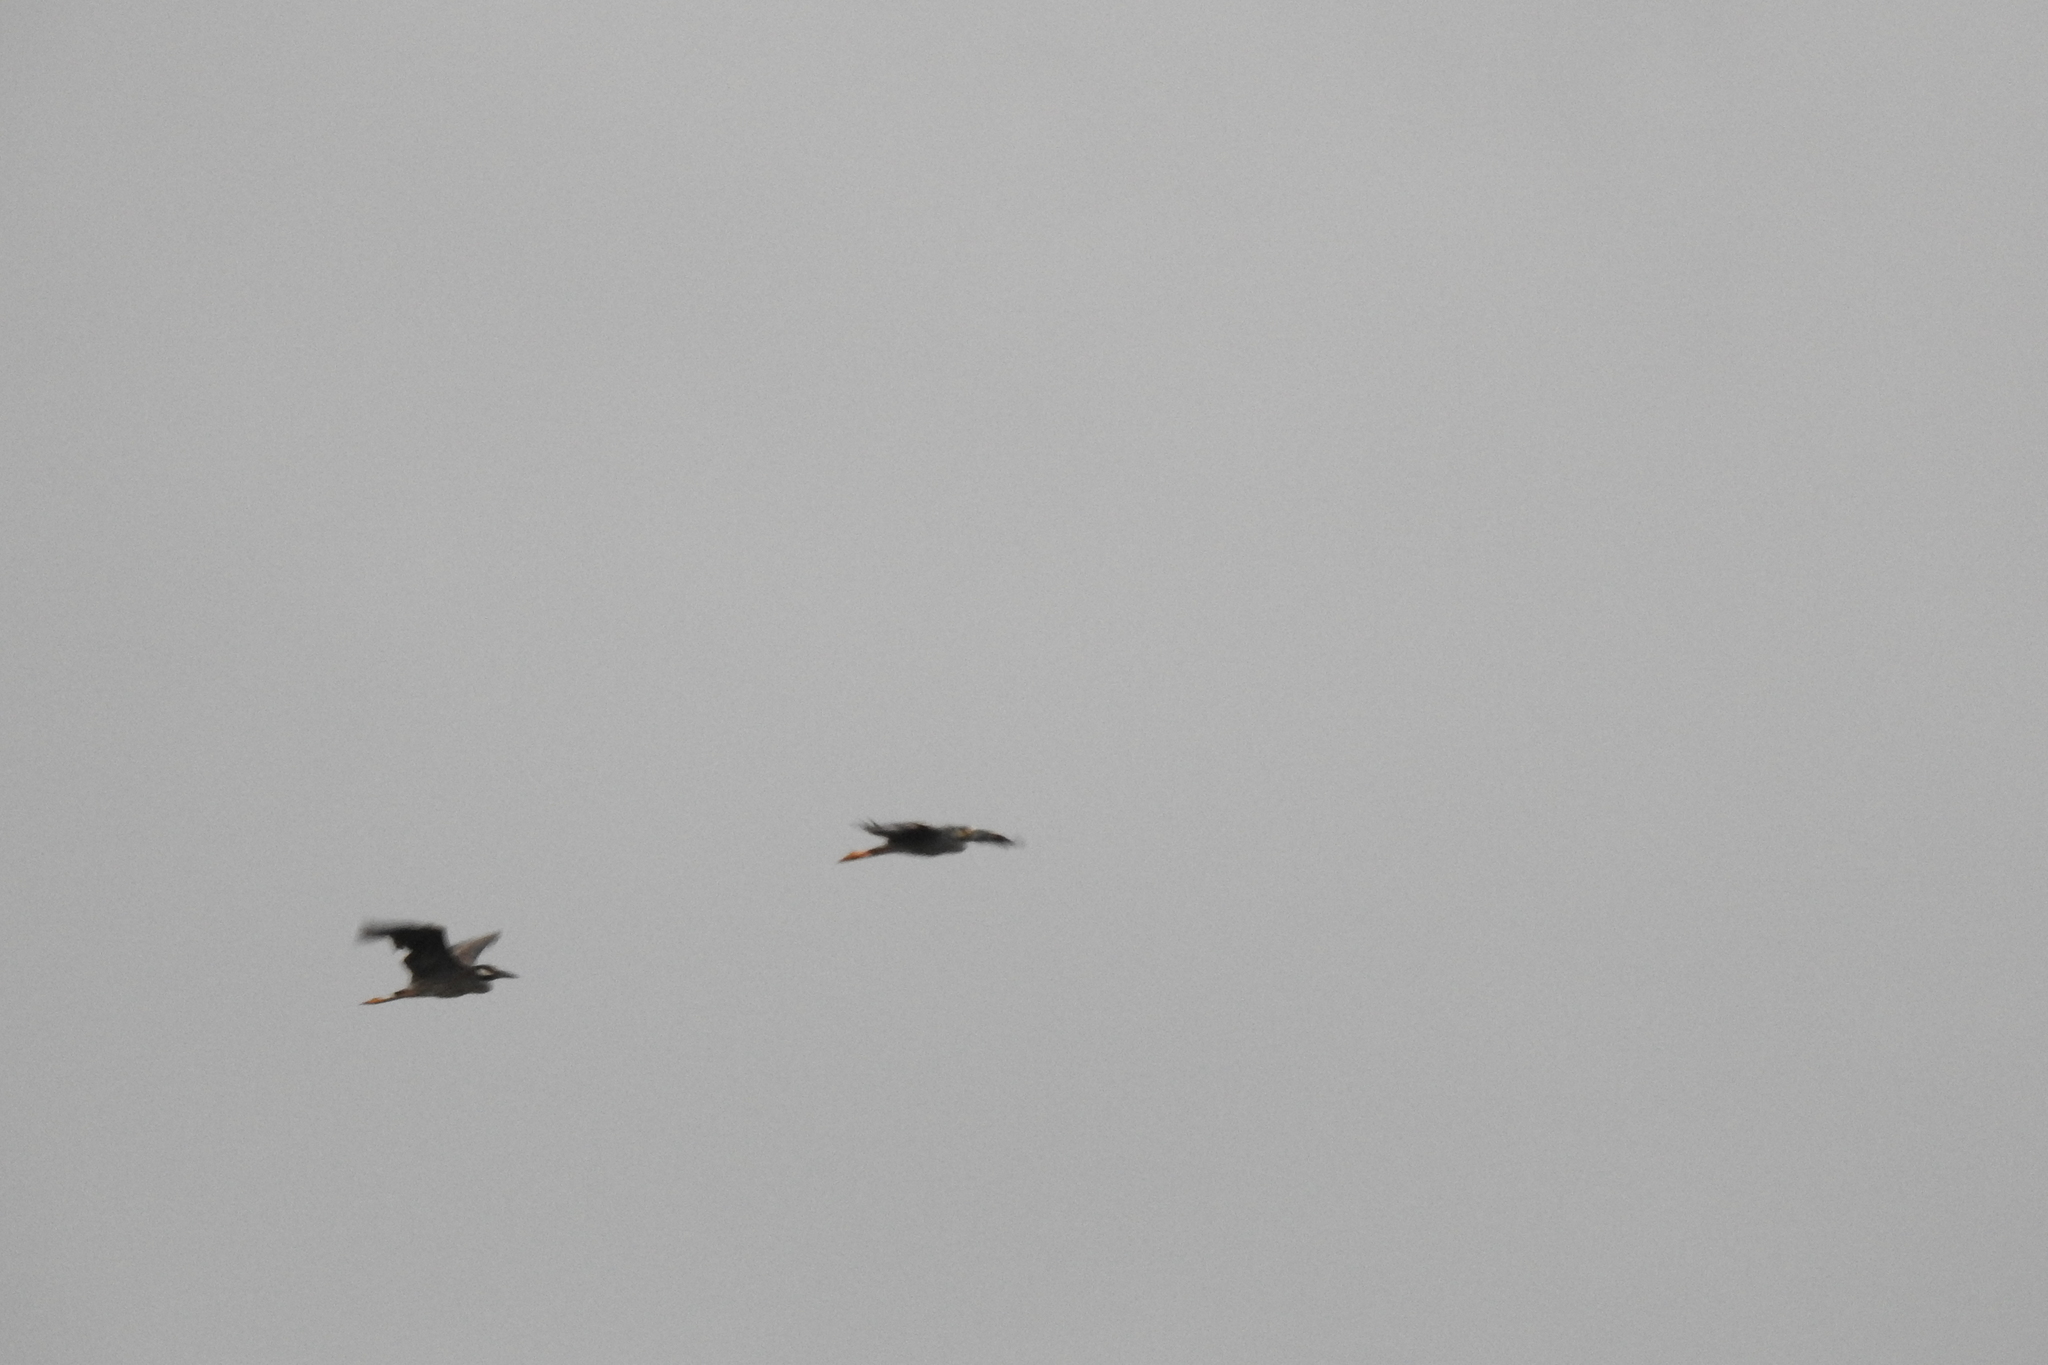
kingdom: Animalia
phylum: Chordata
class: Aves
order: Pelecaniformes
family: Ardeidae
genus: Nyctanassa
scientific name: Nyctanassa violacea
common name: Yellow-crowned night heron
